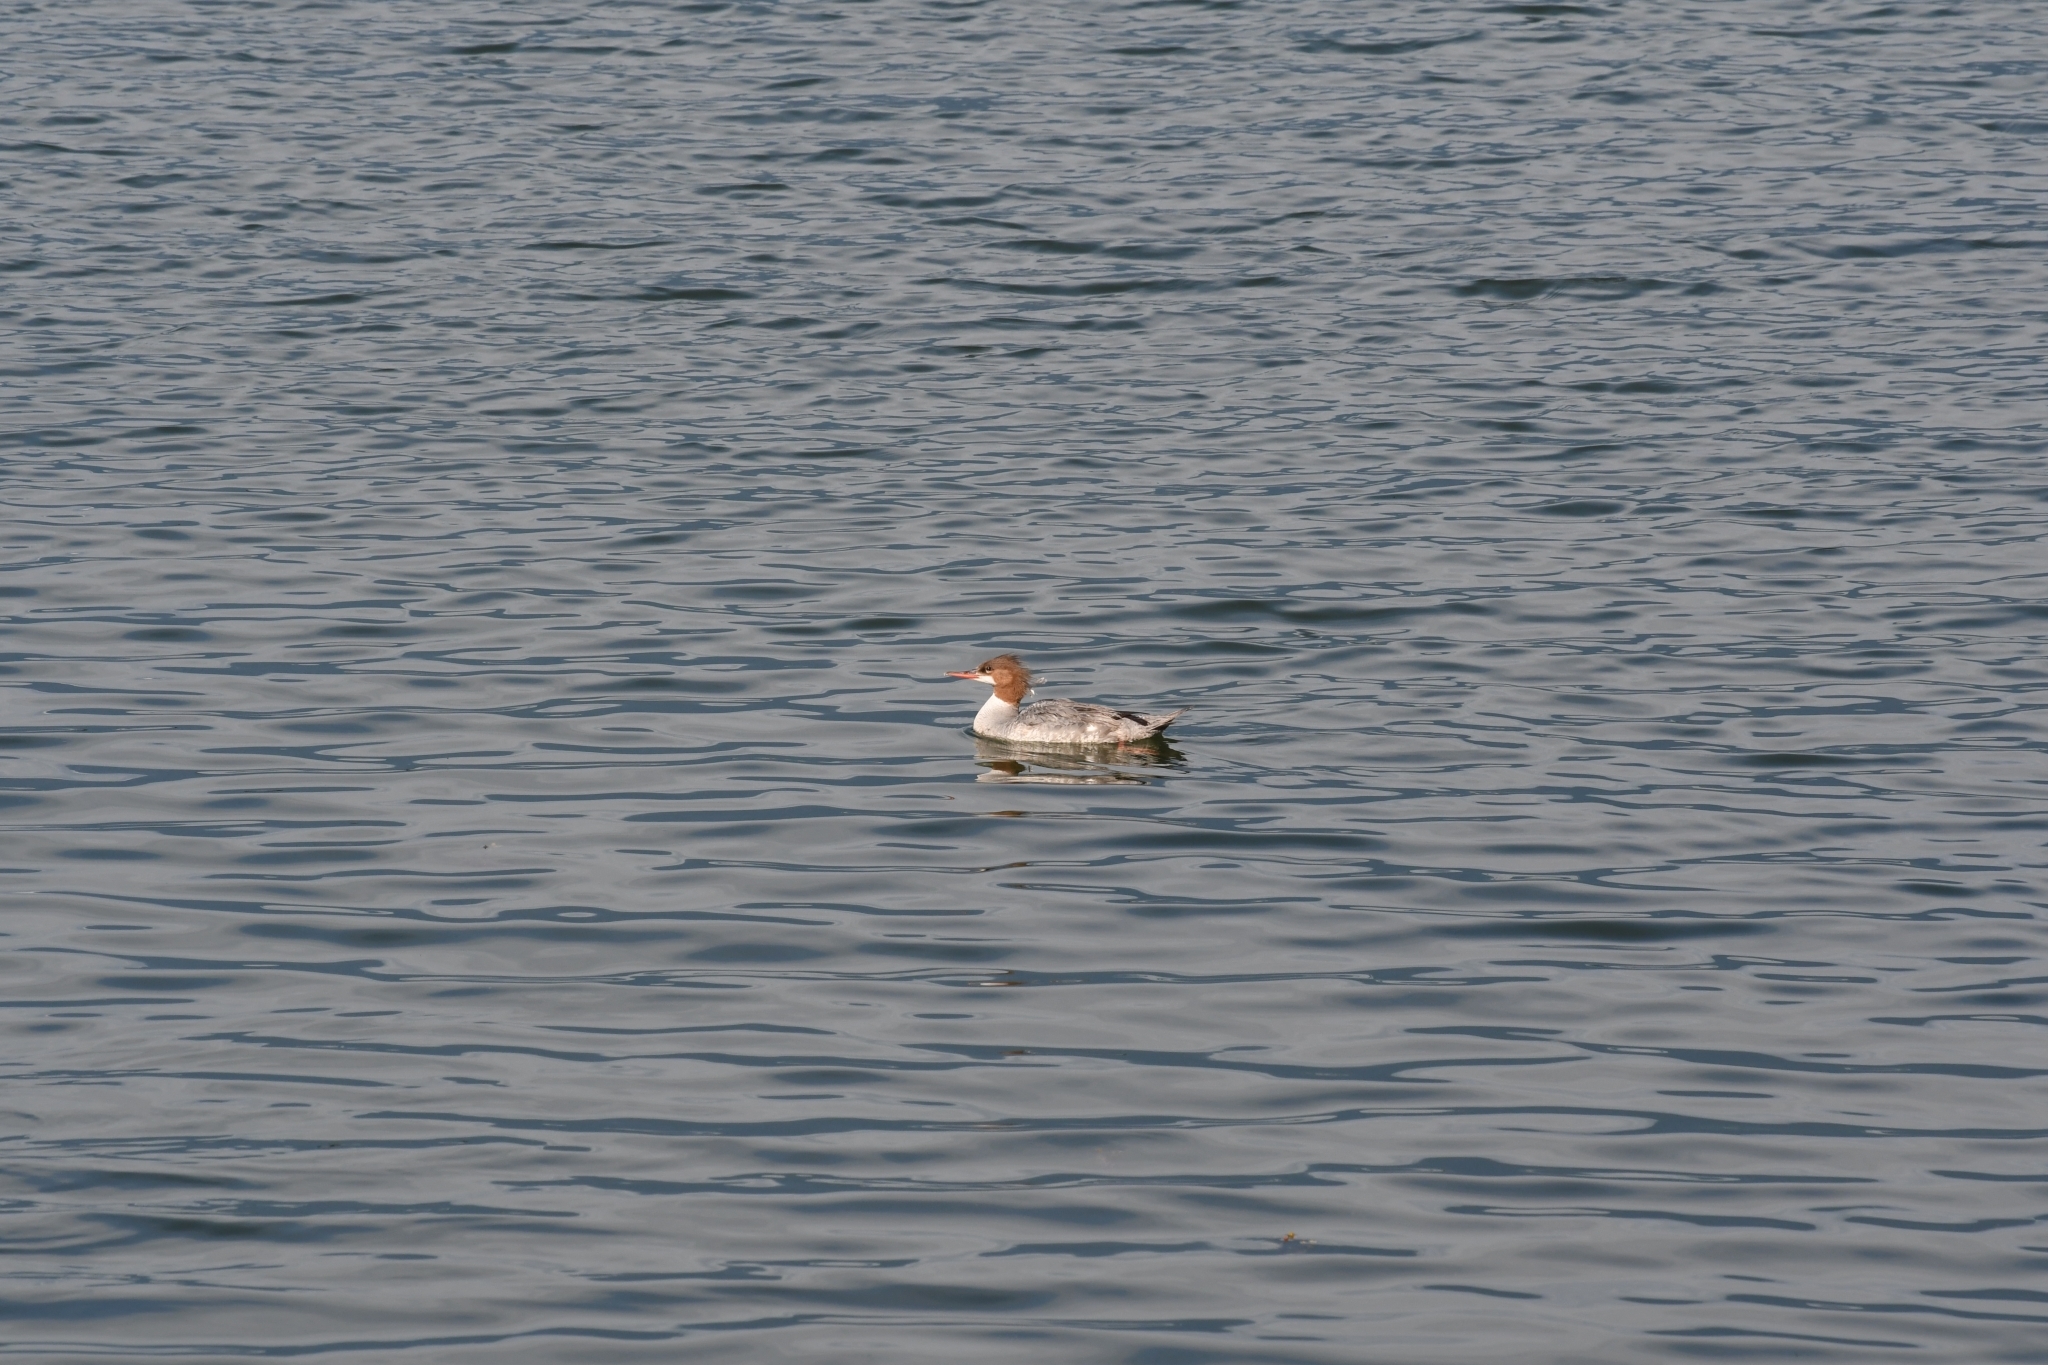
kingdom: Animalia
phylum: Chordata
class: Aves
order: Anseriformes
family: Anatidae
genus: Mergus
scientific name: Mergus merganser
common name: Common merganser
